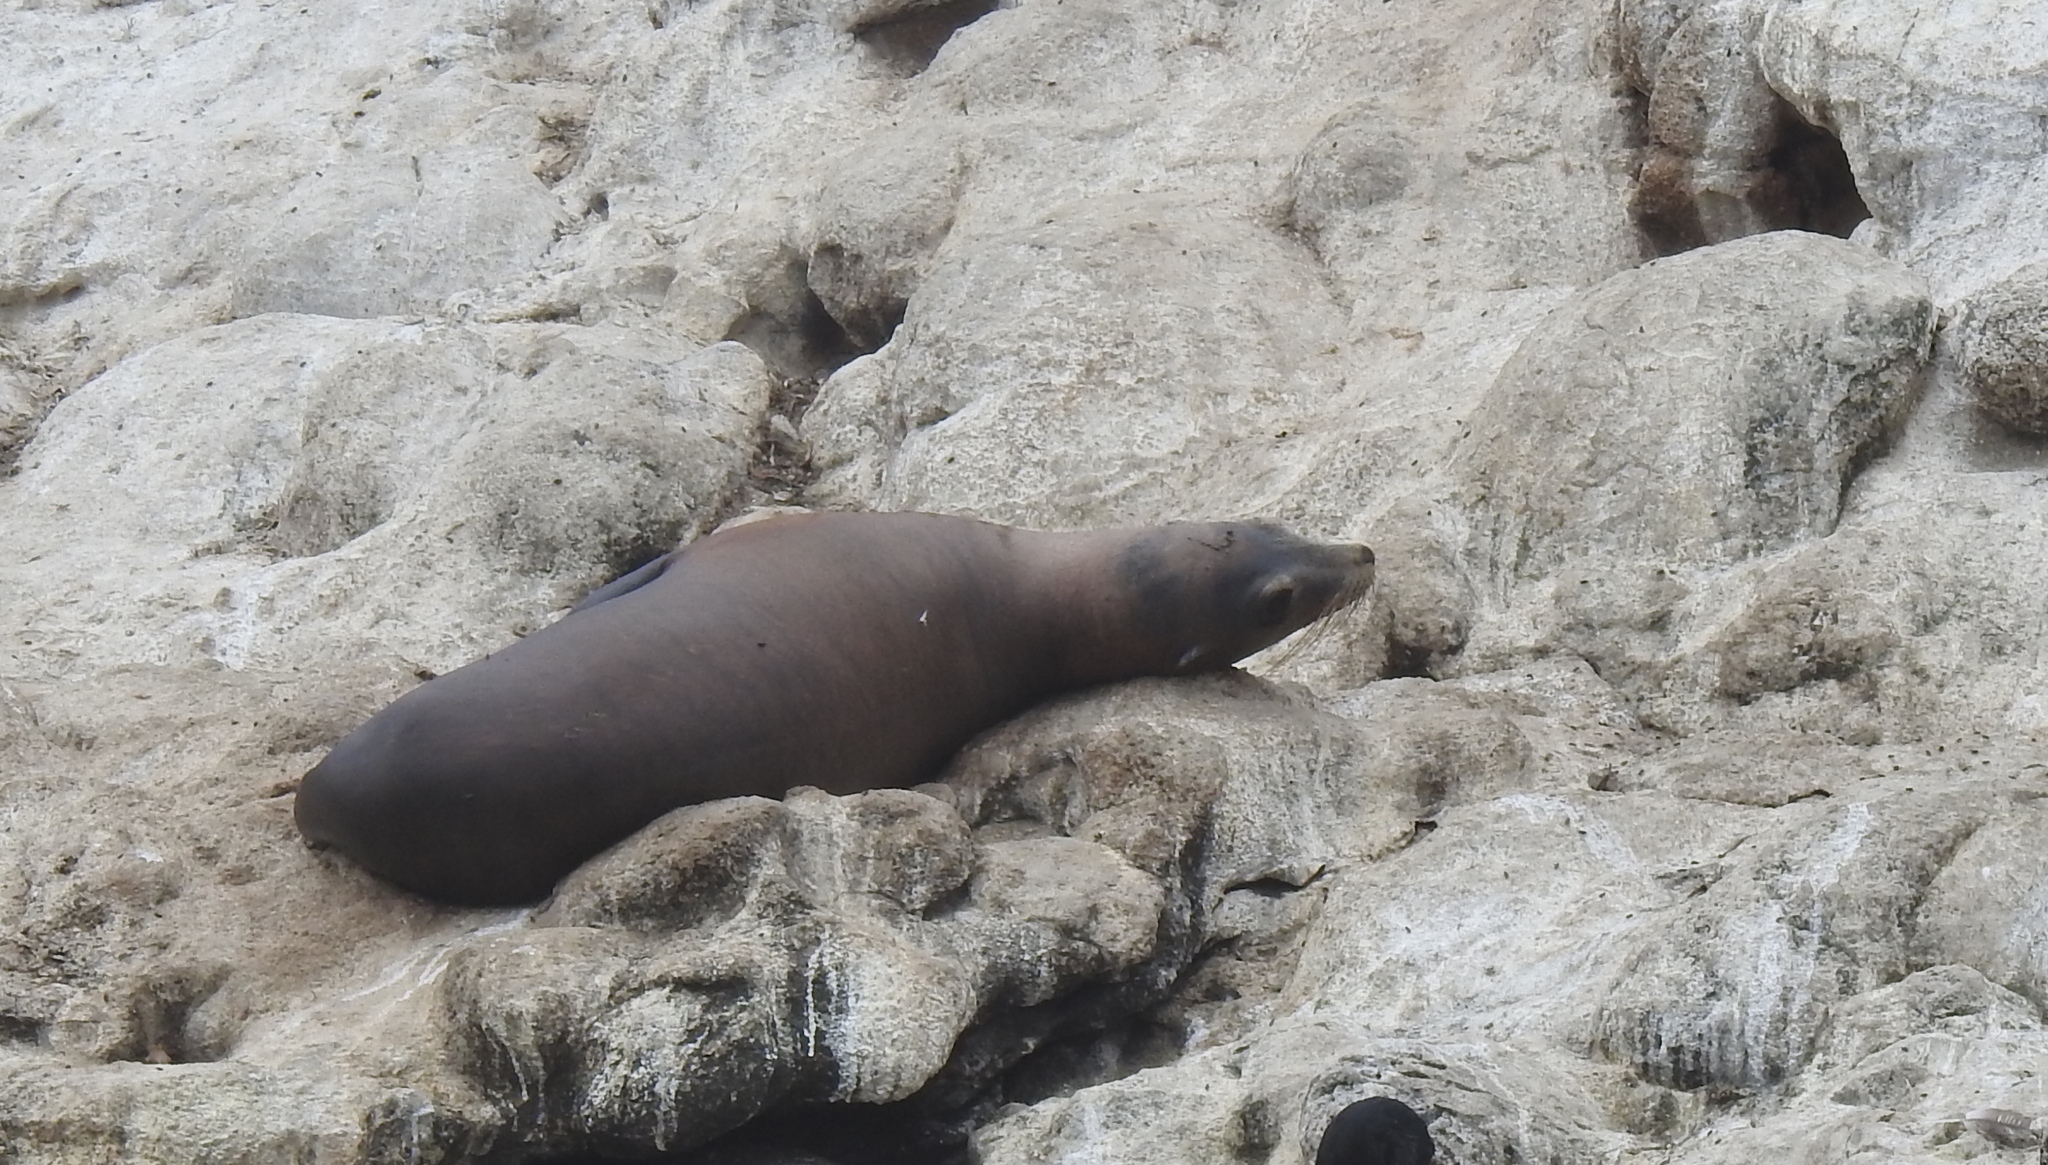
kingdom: Animalia
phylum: Chordata
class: Mammalia
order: Carnivora
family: Otariidae
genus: Zalophus
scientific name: Zalophus californianus
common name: California sea lion
